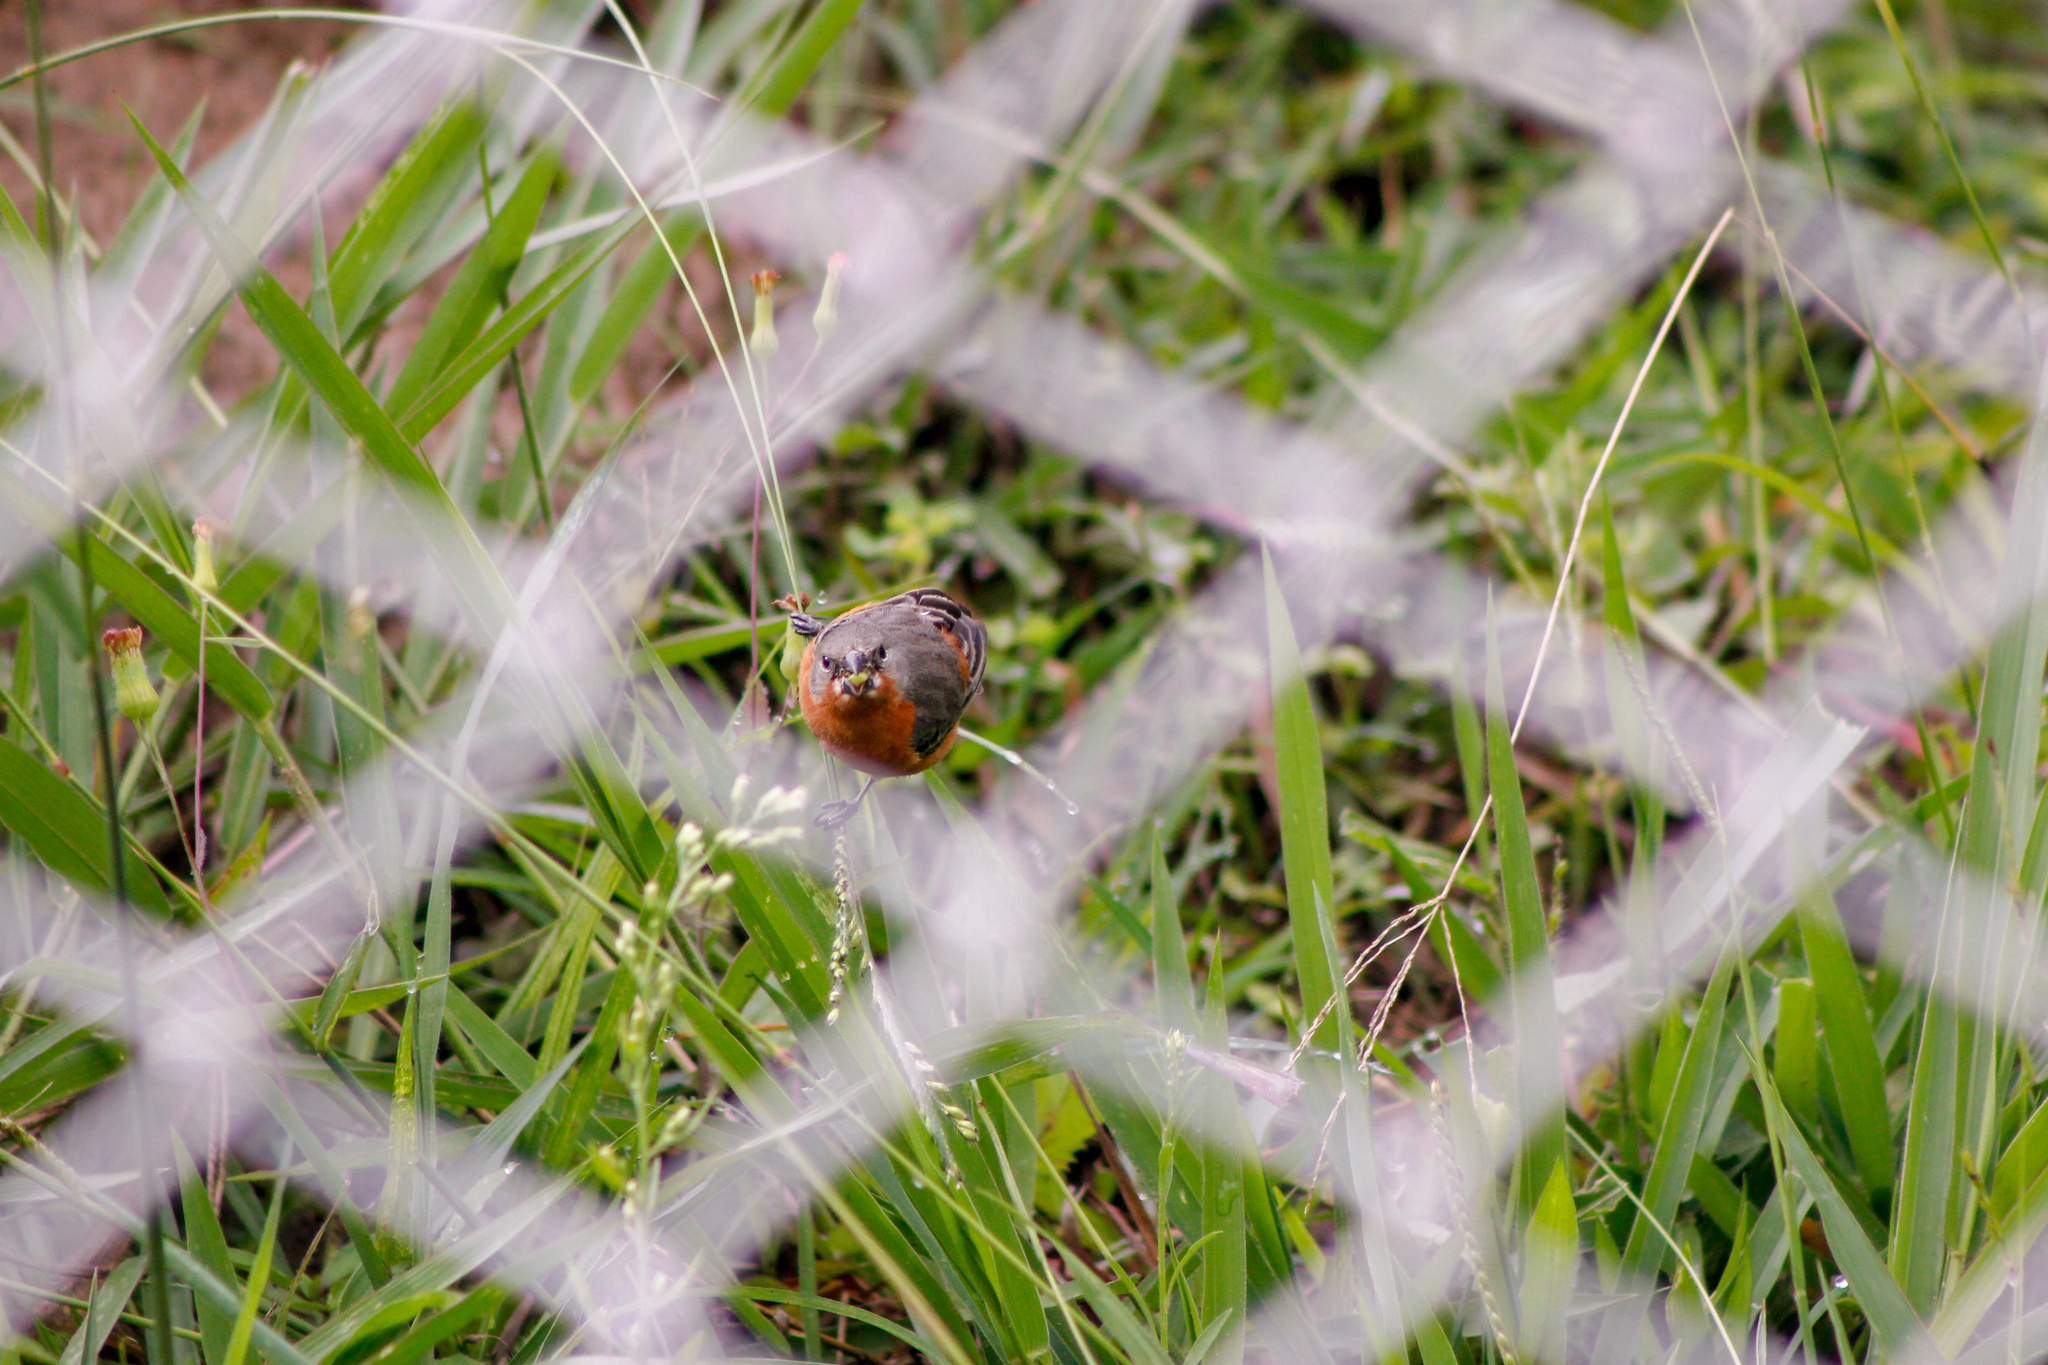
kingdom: Animalia
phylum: Chordata
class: Aves
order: Passeriformes
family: Thraupidae
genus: Sporophila
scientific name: Sporophila minuta
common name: Ruddy-breasted seedeater
